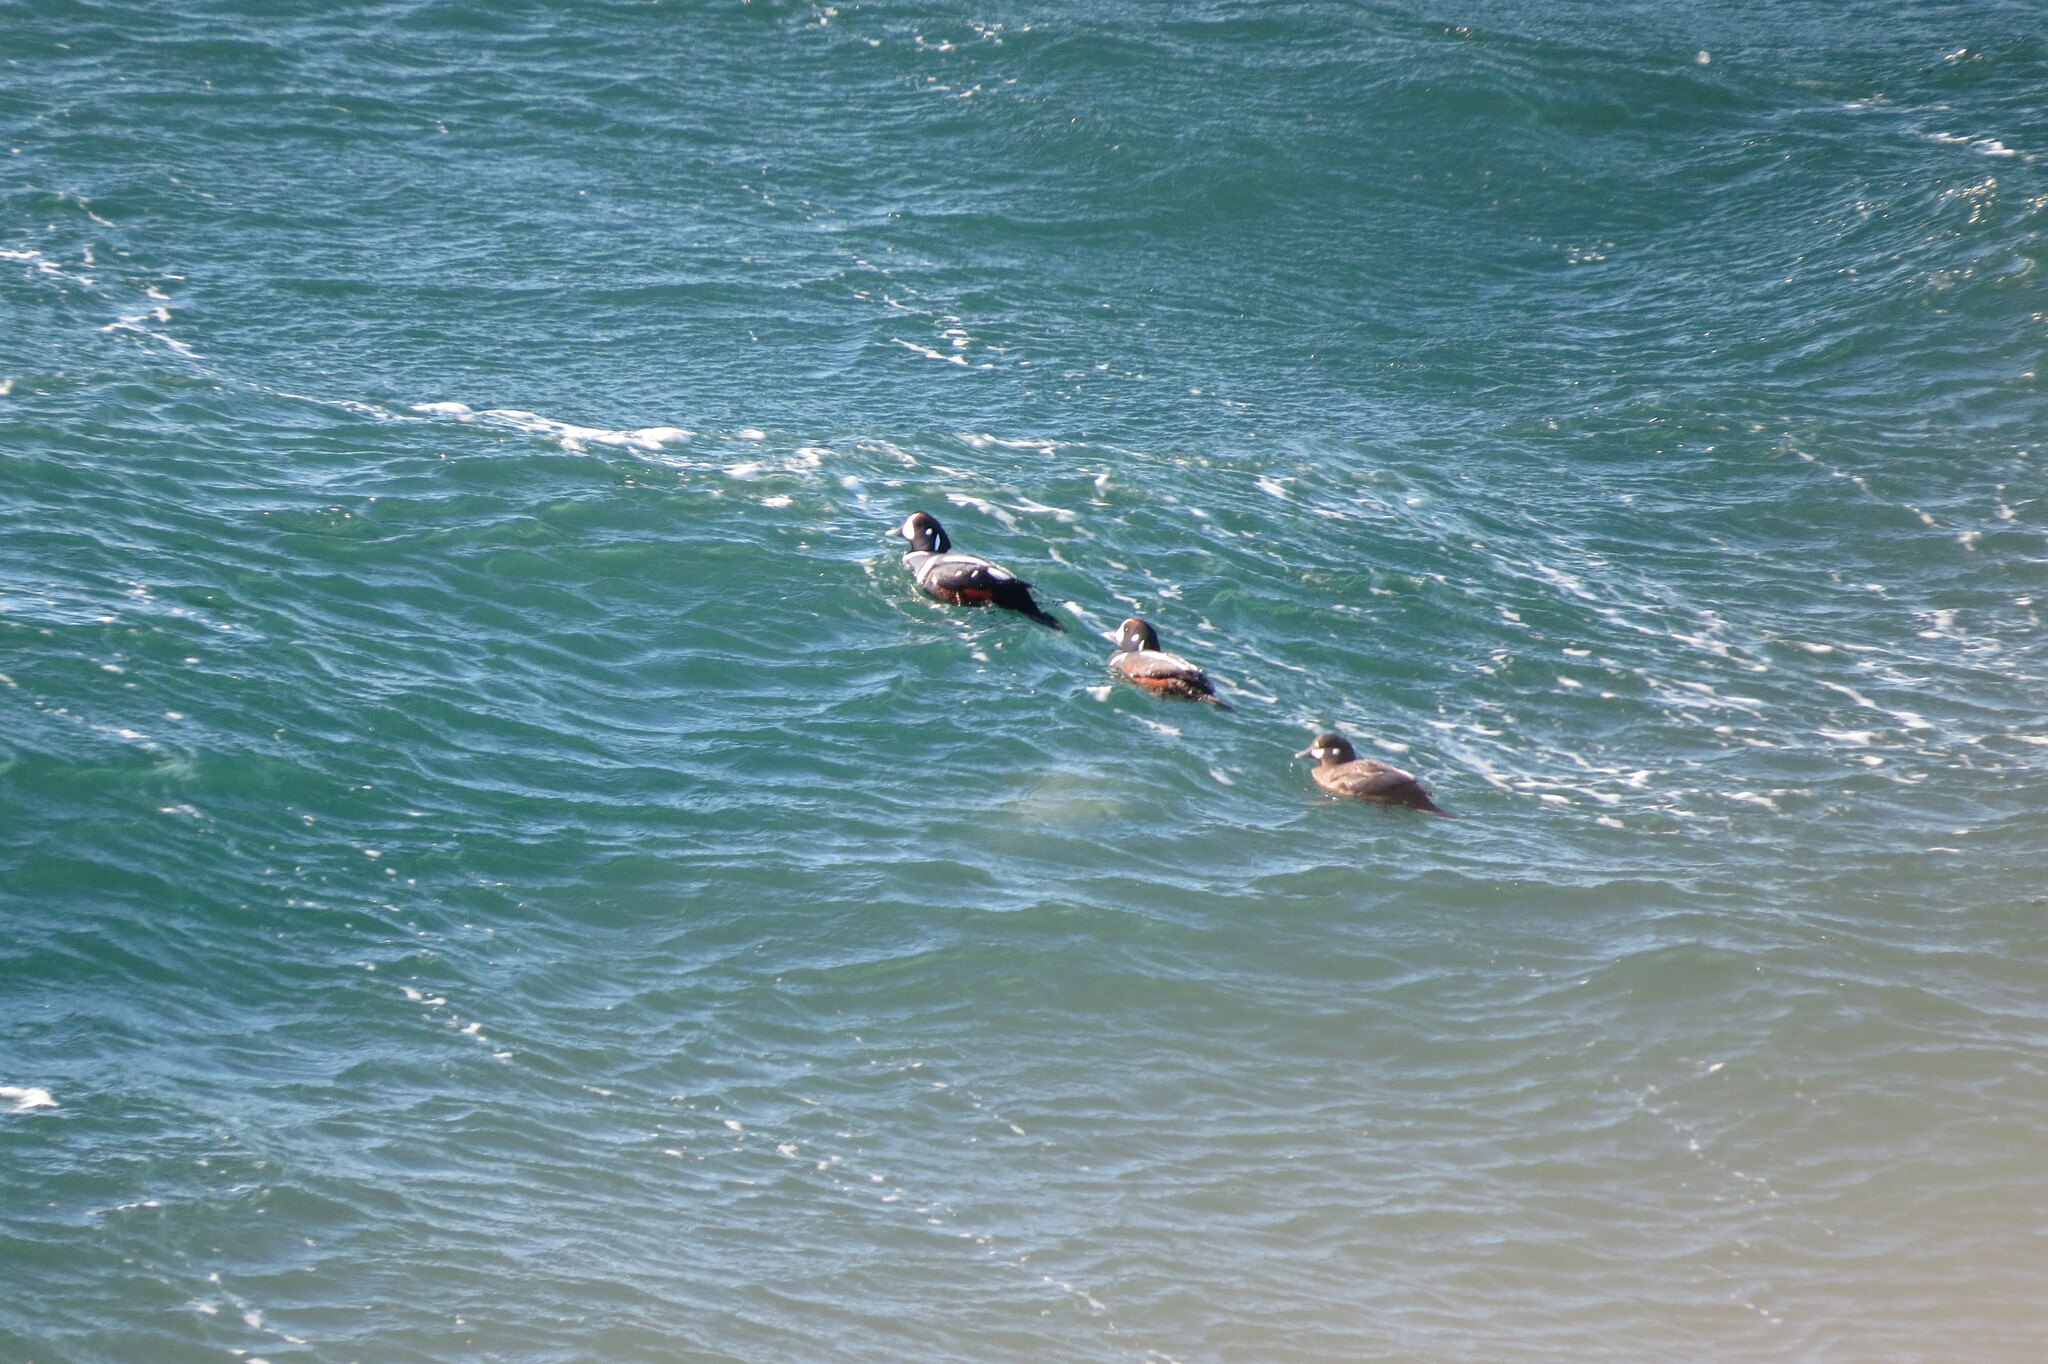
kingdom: Animalia
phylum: Chordata
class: Aves
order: Anseriformes
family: Anatidae
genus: Histrionicus
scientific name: Histrionicus histrionicus
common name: Harlequin duck
